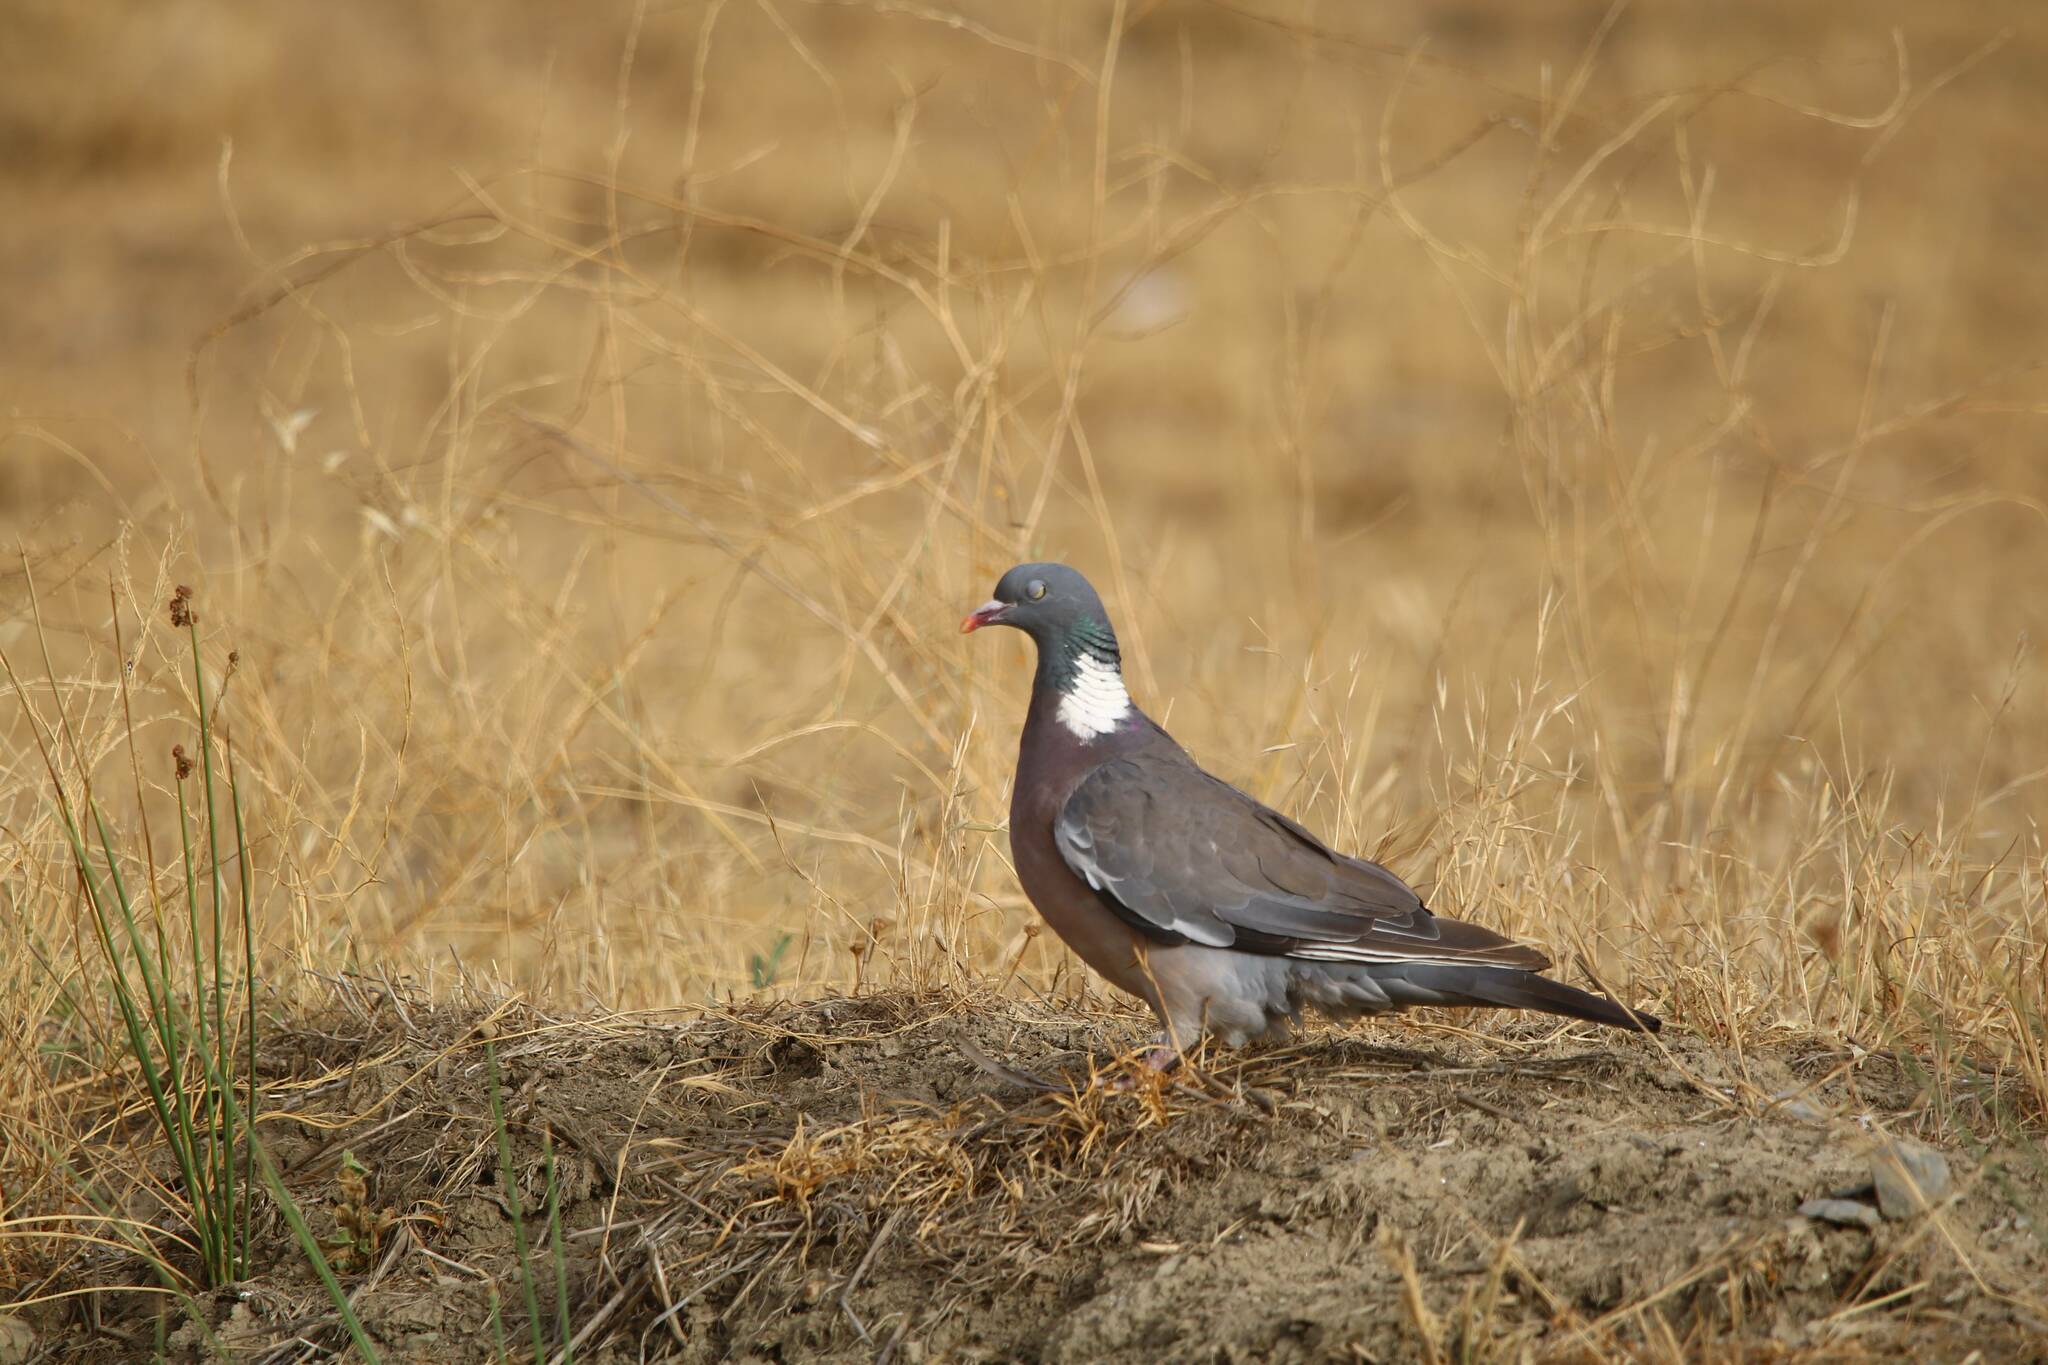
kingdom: Animalia
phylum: Chordata
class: Aves
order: Columbiformes
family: Columbidae
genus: Columba
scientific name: Columba palumbus
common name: Common wood pigeon
